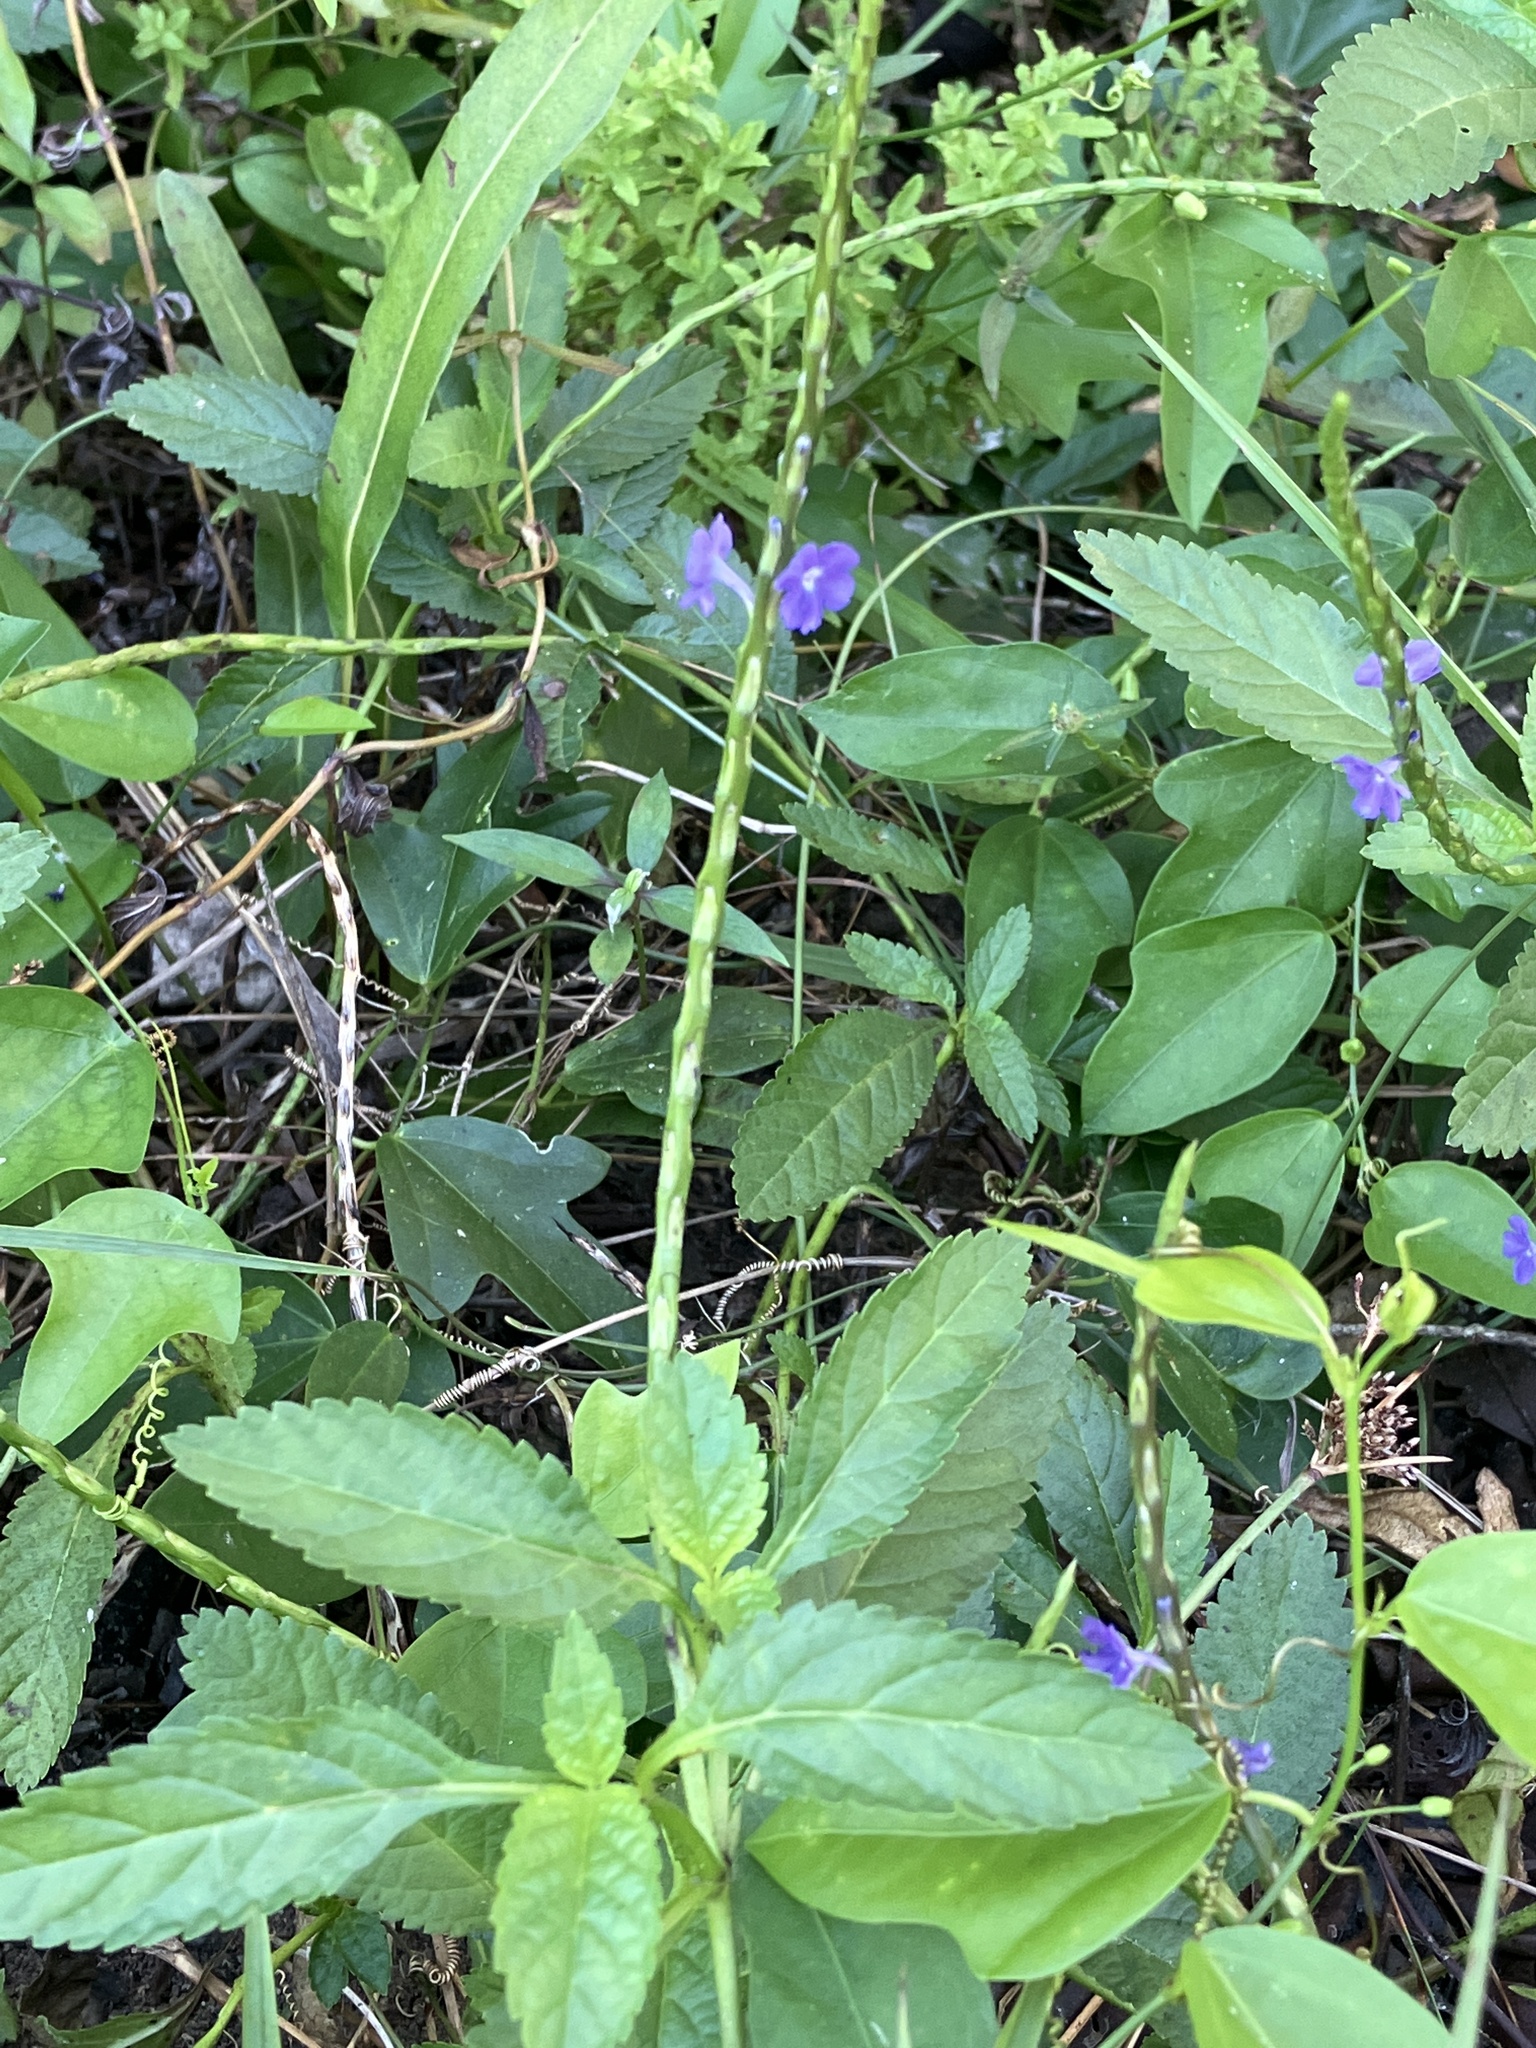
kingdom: Plantae
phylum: Tracheophyta
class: Magnoliopsida
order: Lamiales
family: Verbenaceae
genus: Stachytarpheta
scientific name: Stachytarpheta jamaicensis
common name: Light-blue snakeweed
